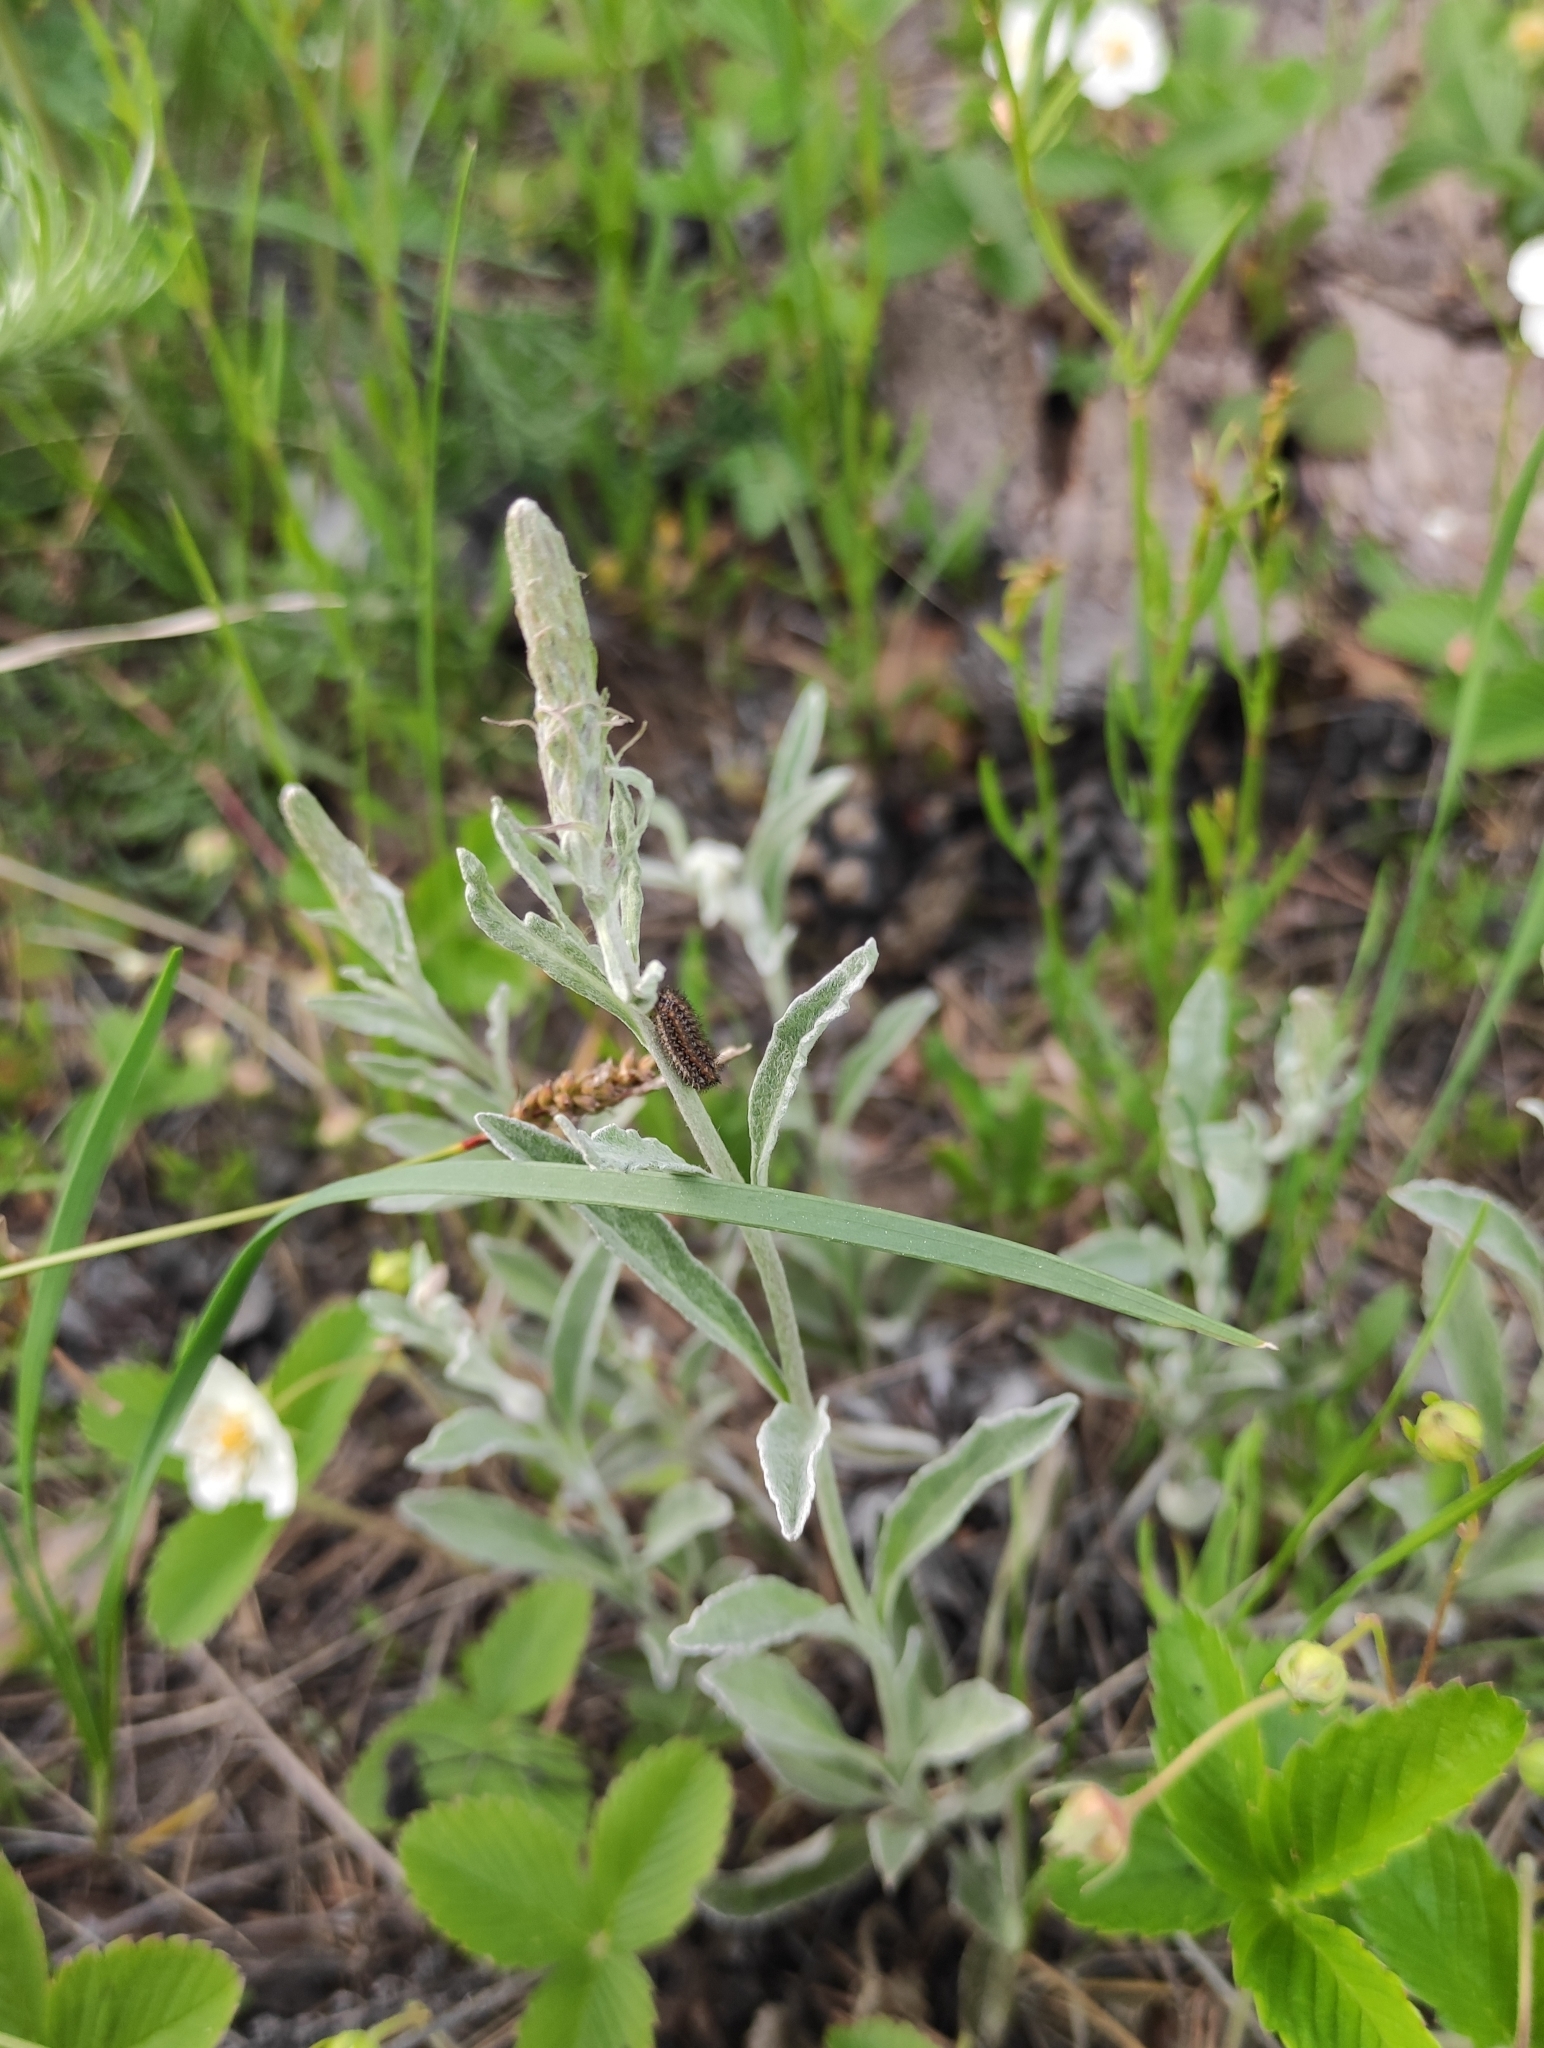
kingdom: Plantae
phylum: Tracheophyta
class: Magnoliopsida
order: Lamiales
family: Plantaginaceae
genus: Veronica
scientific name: Veronica incana
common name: Silver speedwell
